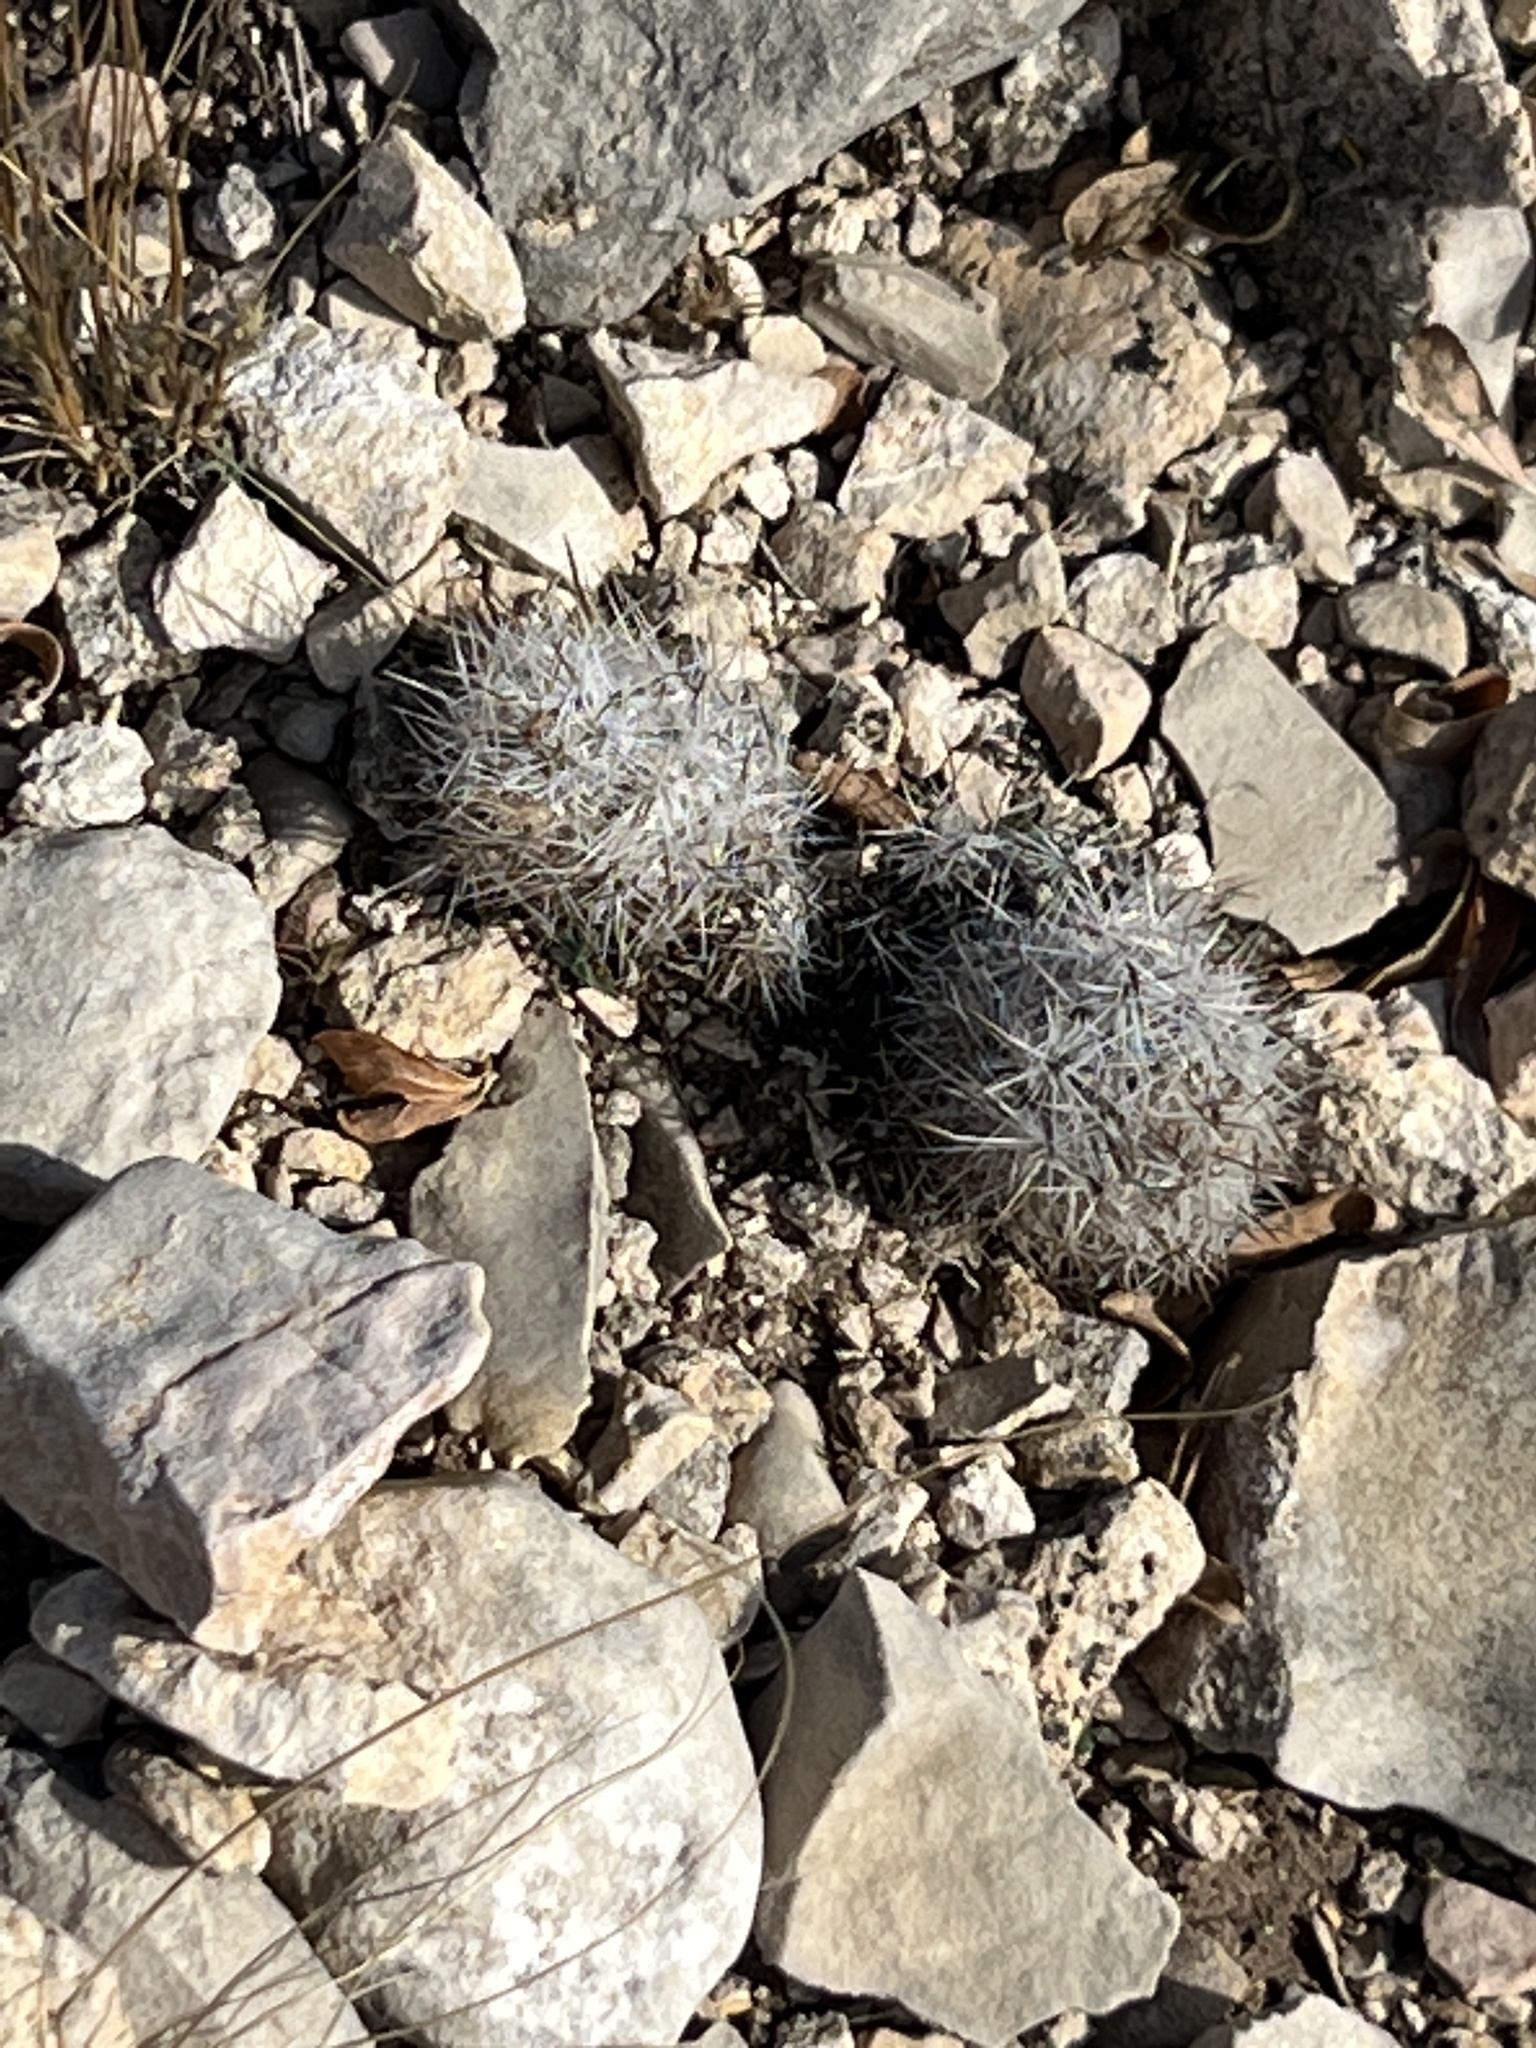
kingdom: Plantae
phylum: Tracheophyta
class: Magnoliopsida
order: Caryophyllales
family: Cactaceae
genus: Pelecyphora
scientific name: Pelecyphora emskoetteriana
